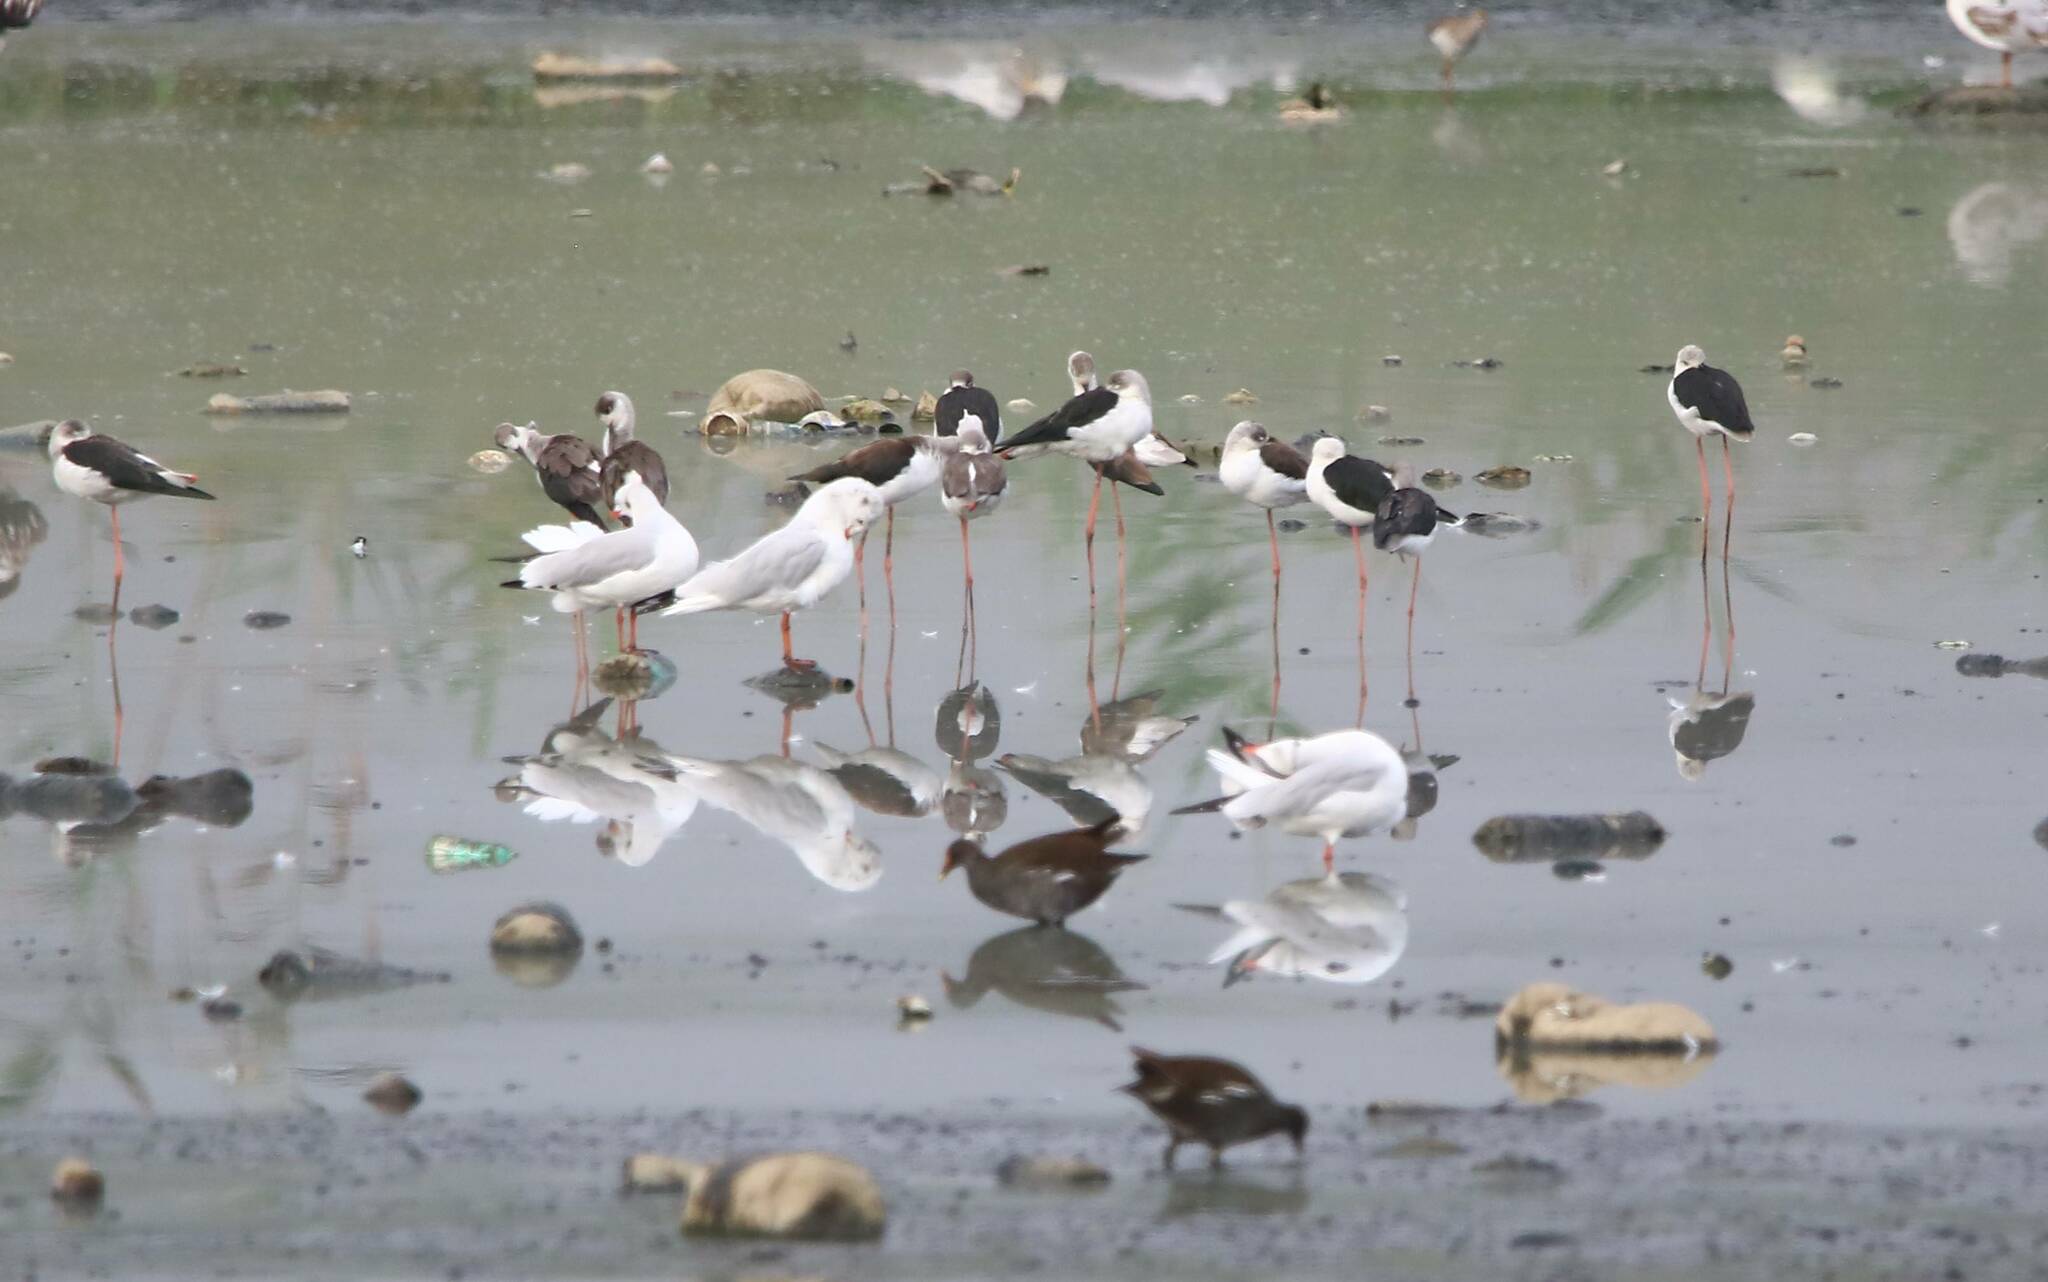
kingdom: Animalia
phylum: Chordata
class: Aves
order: Charadriiformes
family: Laridae
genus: Chroicocephalus
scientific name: Chroicocephalus ridibundus
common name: Black-headed gull
